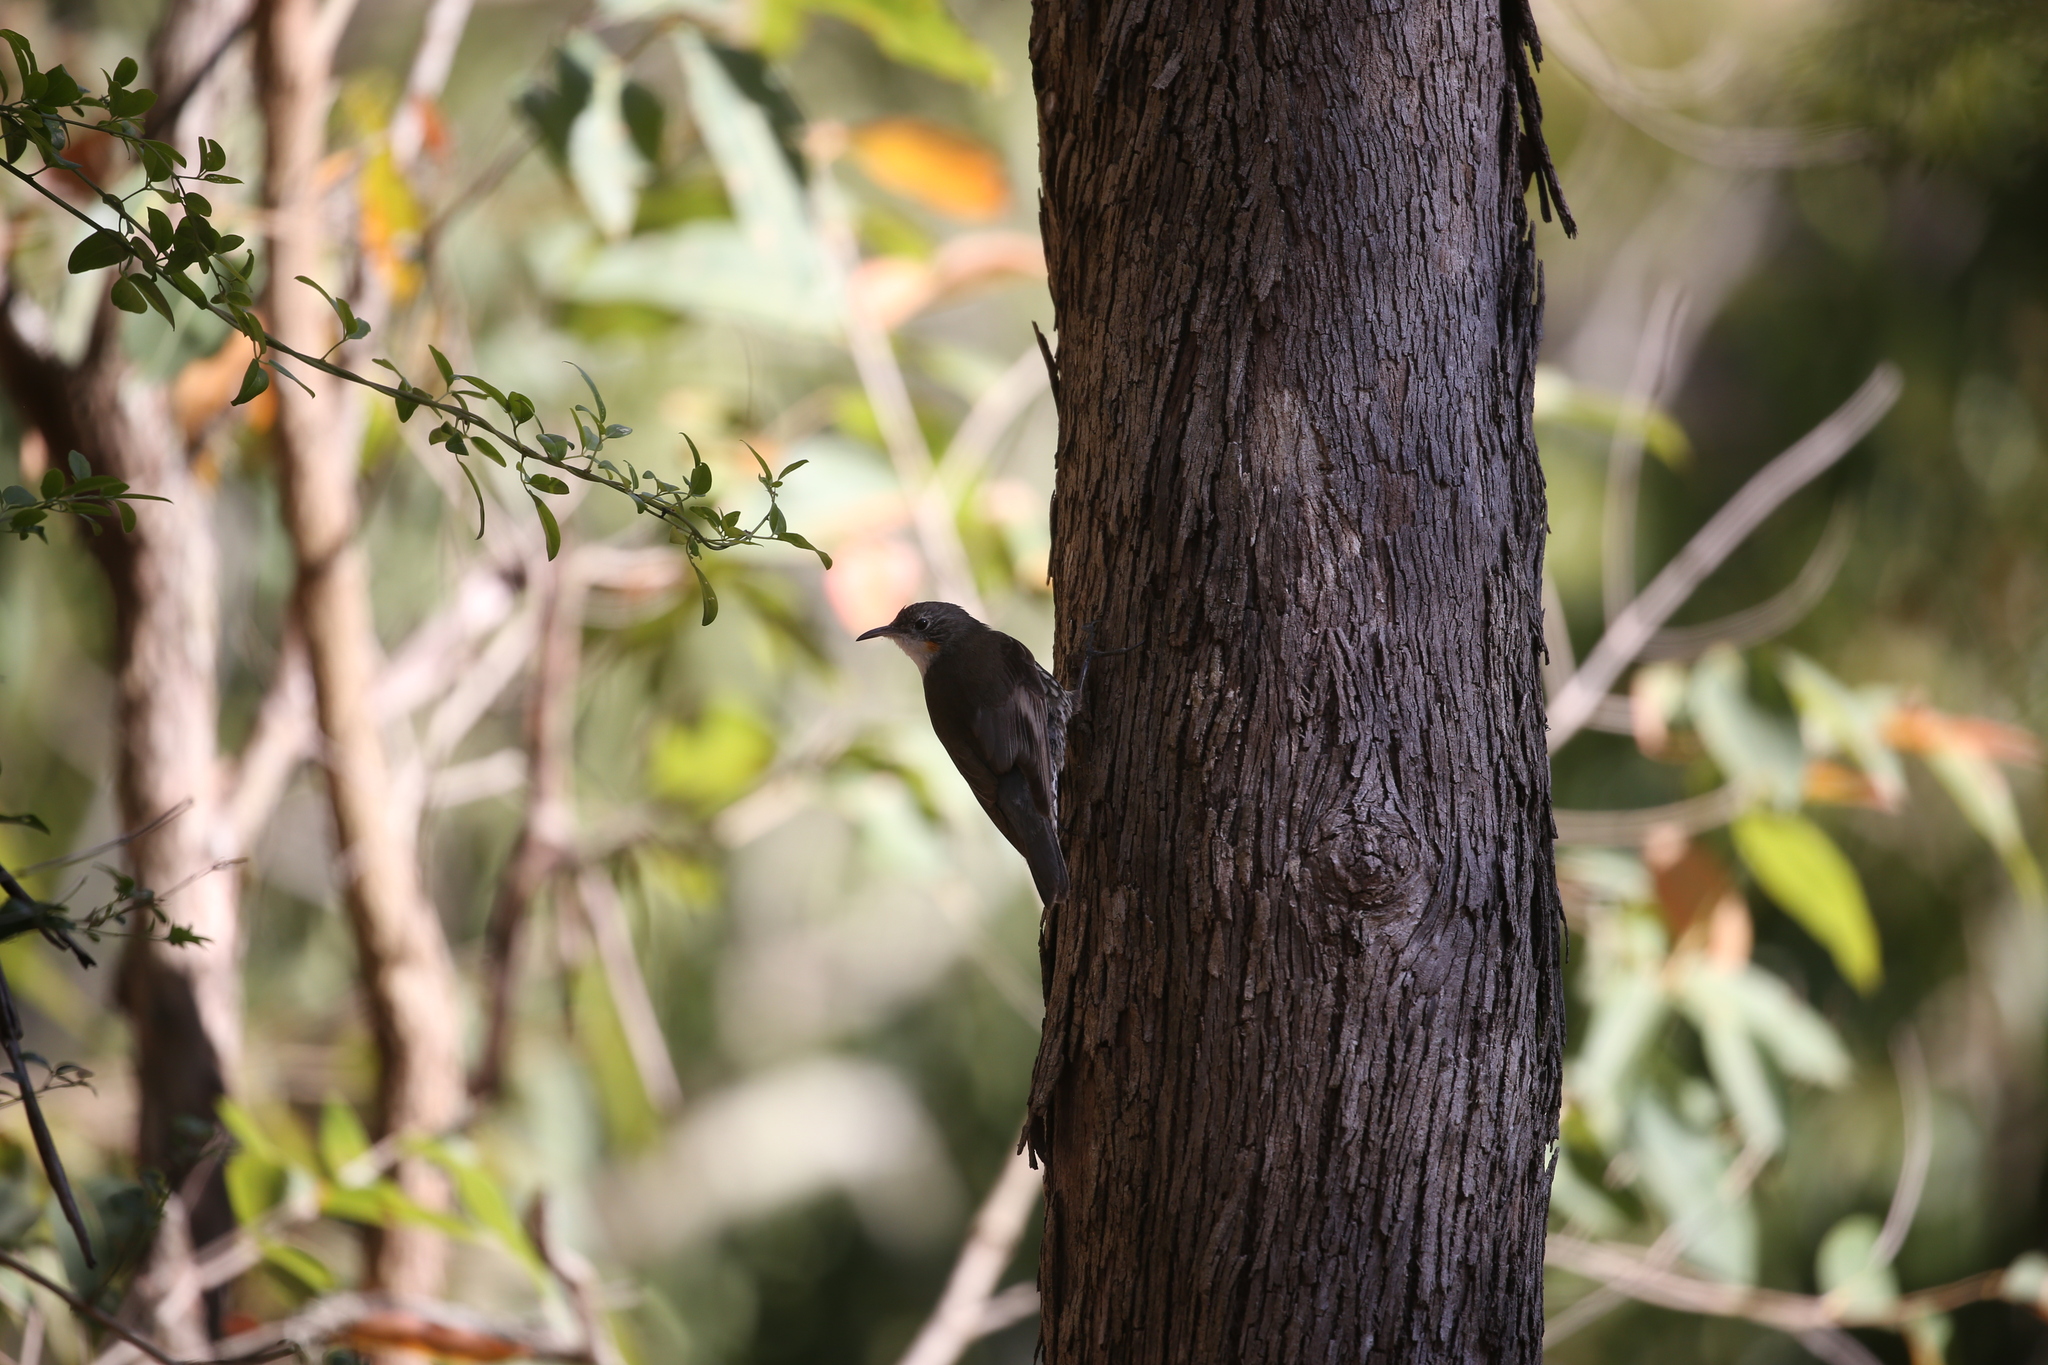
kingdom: Animalia
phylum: Chordata
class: Aves
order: Passeriformes
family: Climacteridae
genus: Cormobates
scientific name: Cormobates leucophaea
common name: White-throated treecreeper
